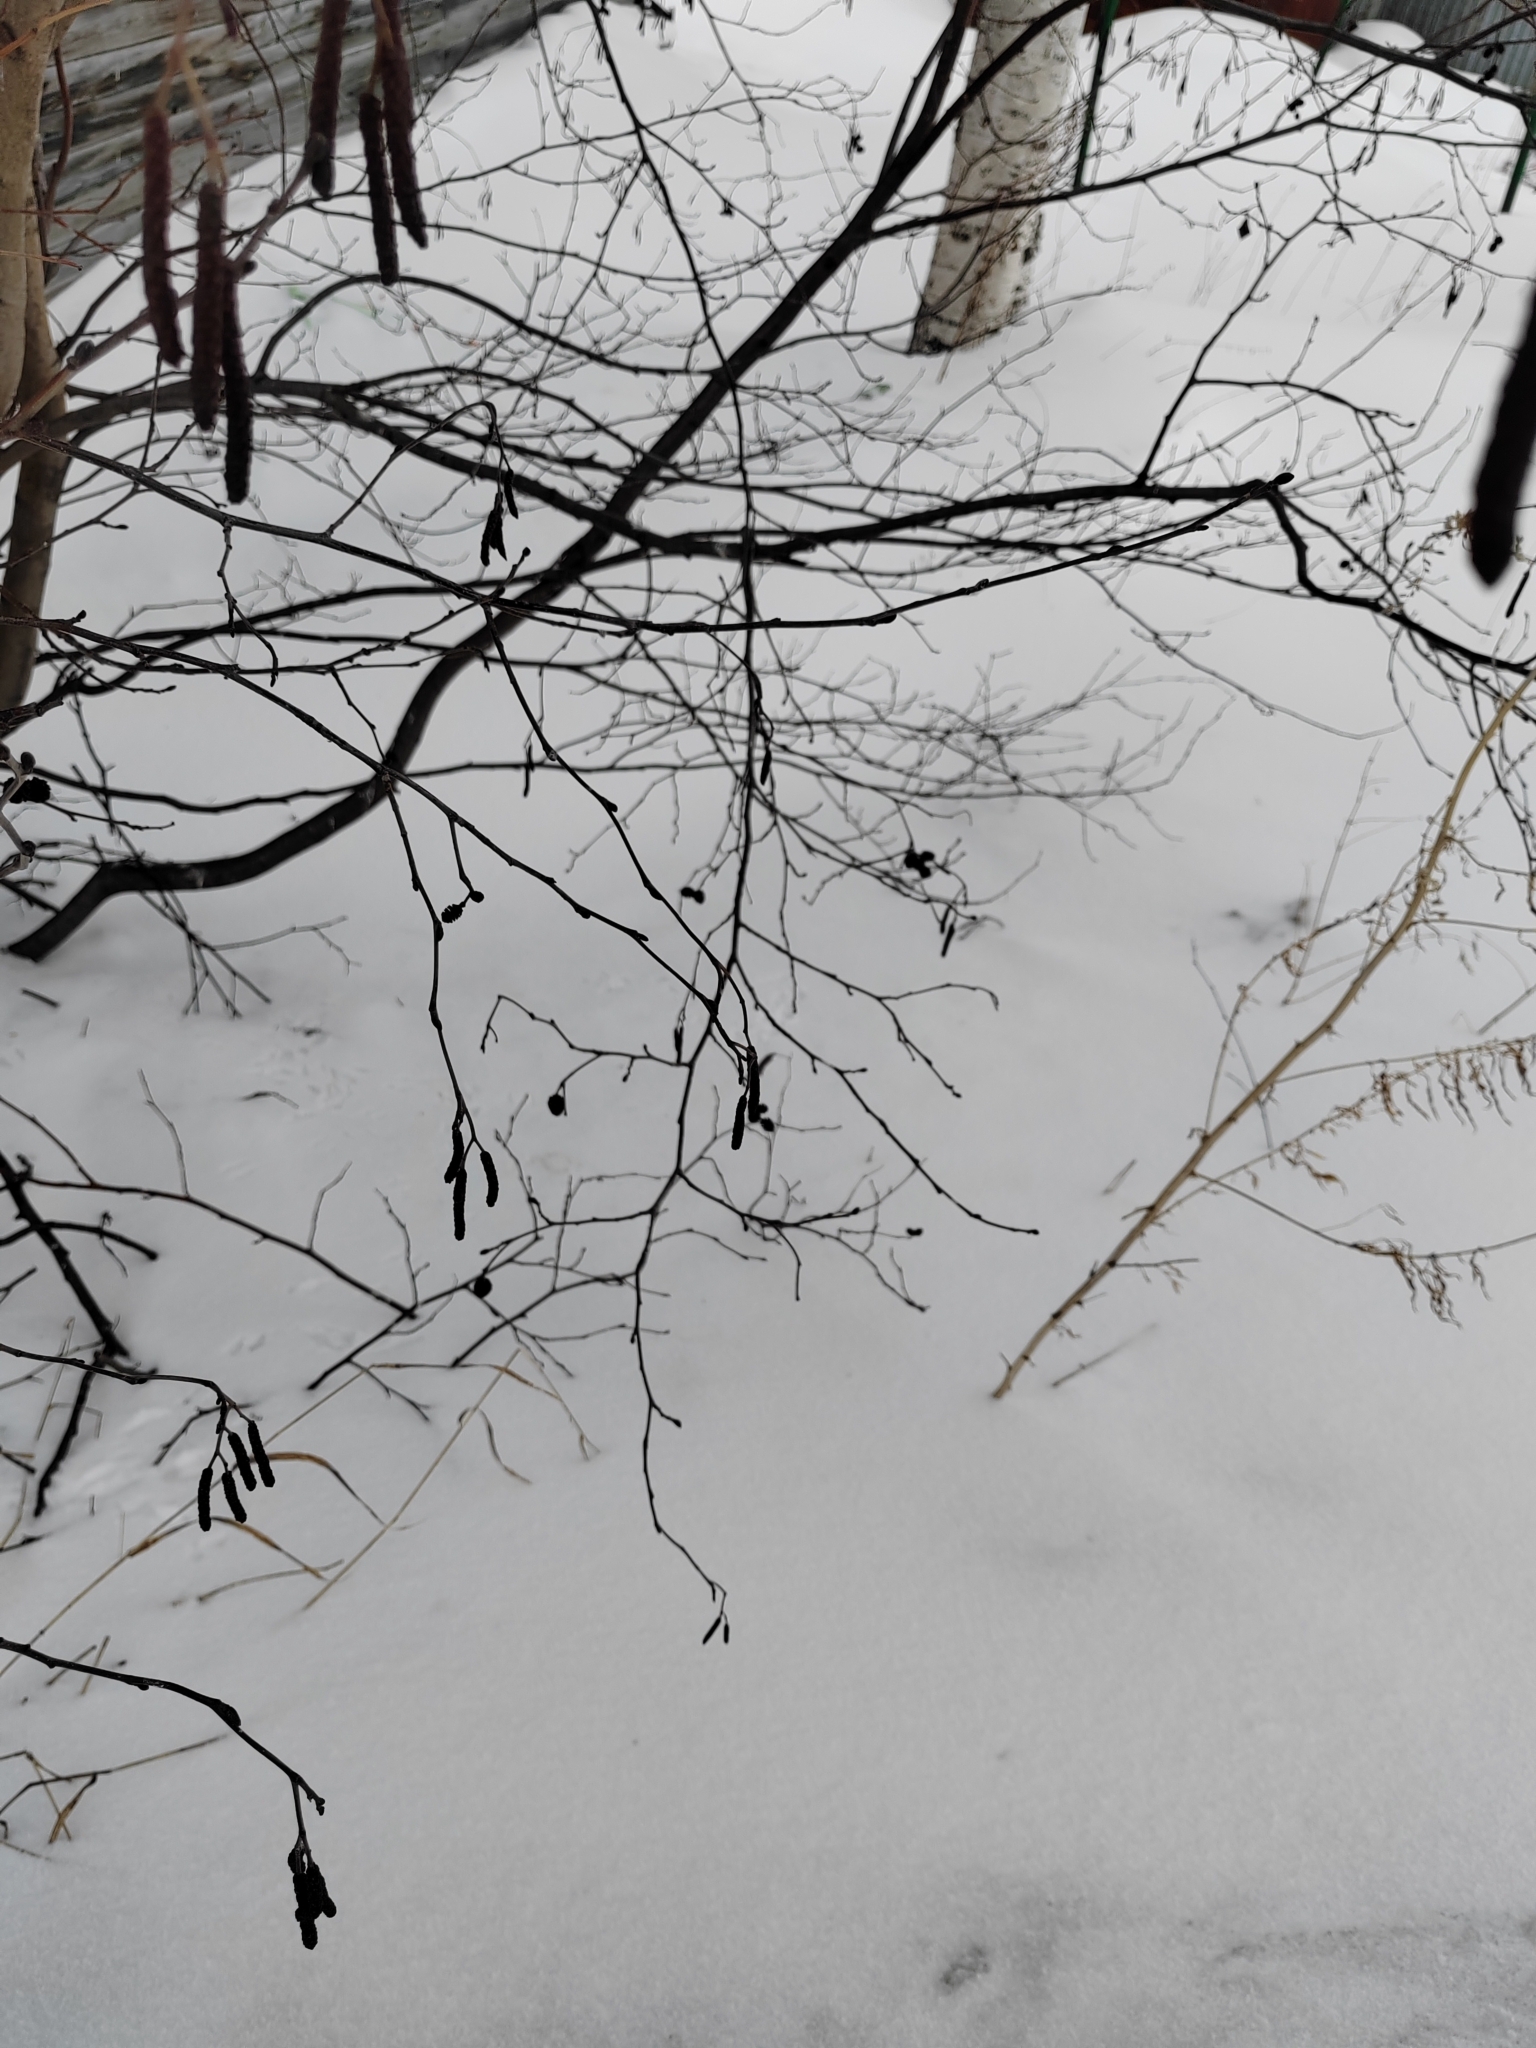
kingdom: Plantae
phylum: Tracheophyta
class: Magnoliopsida
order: Fagales
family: Betulaceae
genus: Alnus
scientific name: Alnus incana
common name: Grey alder
